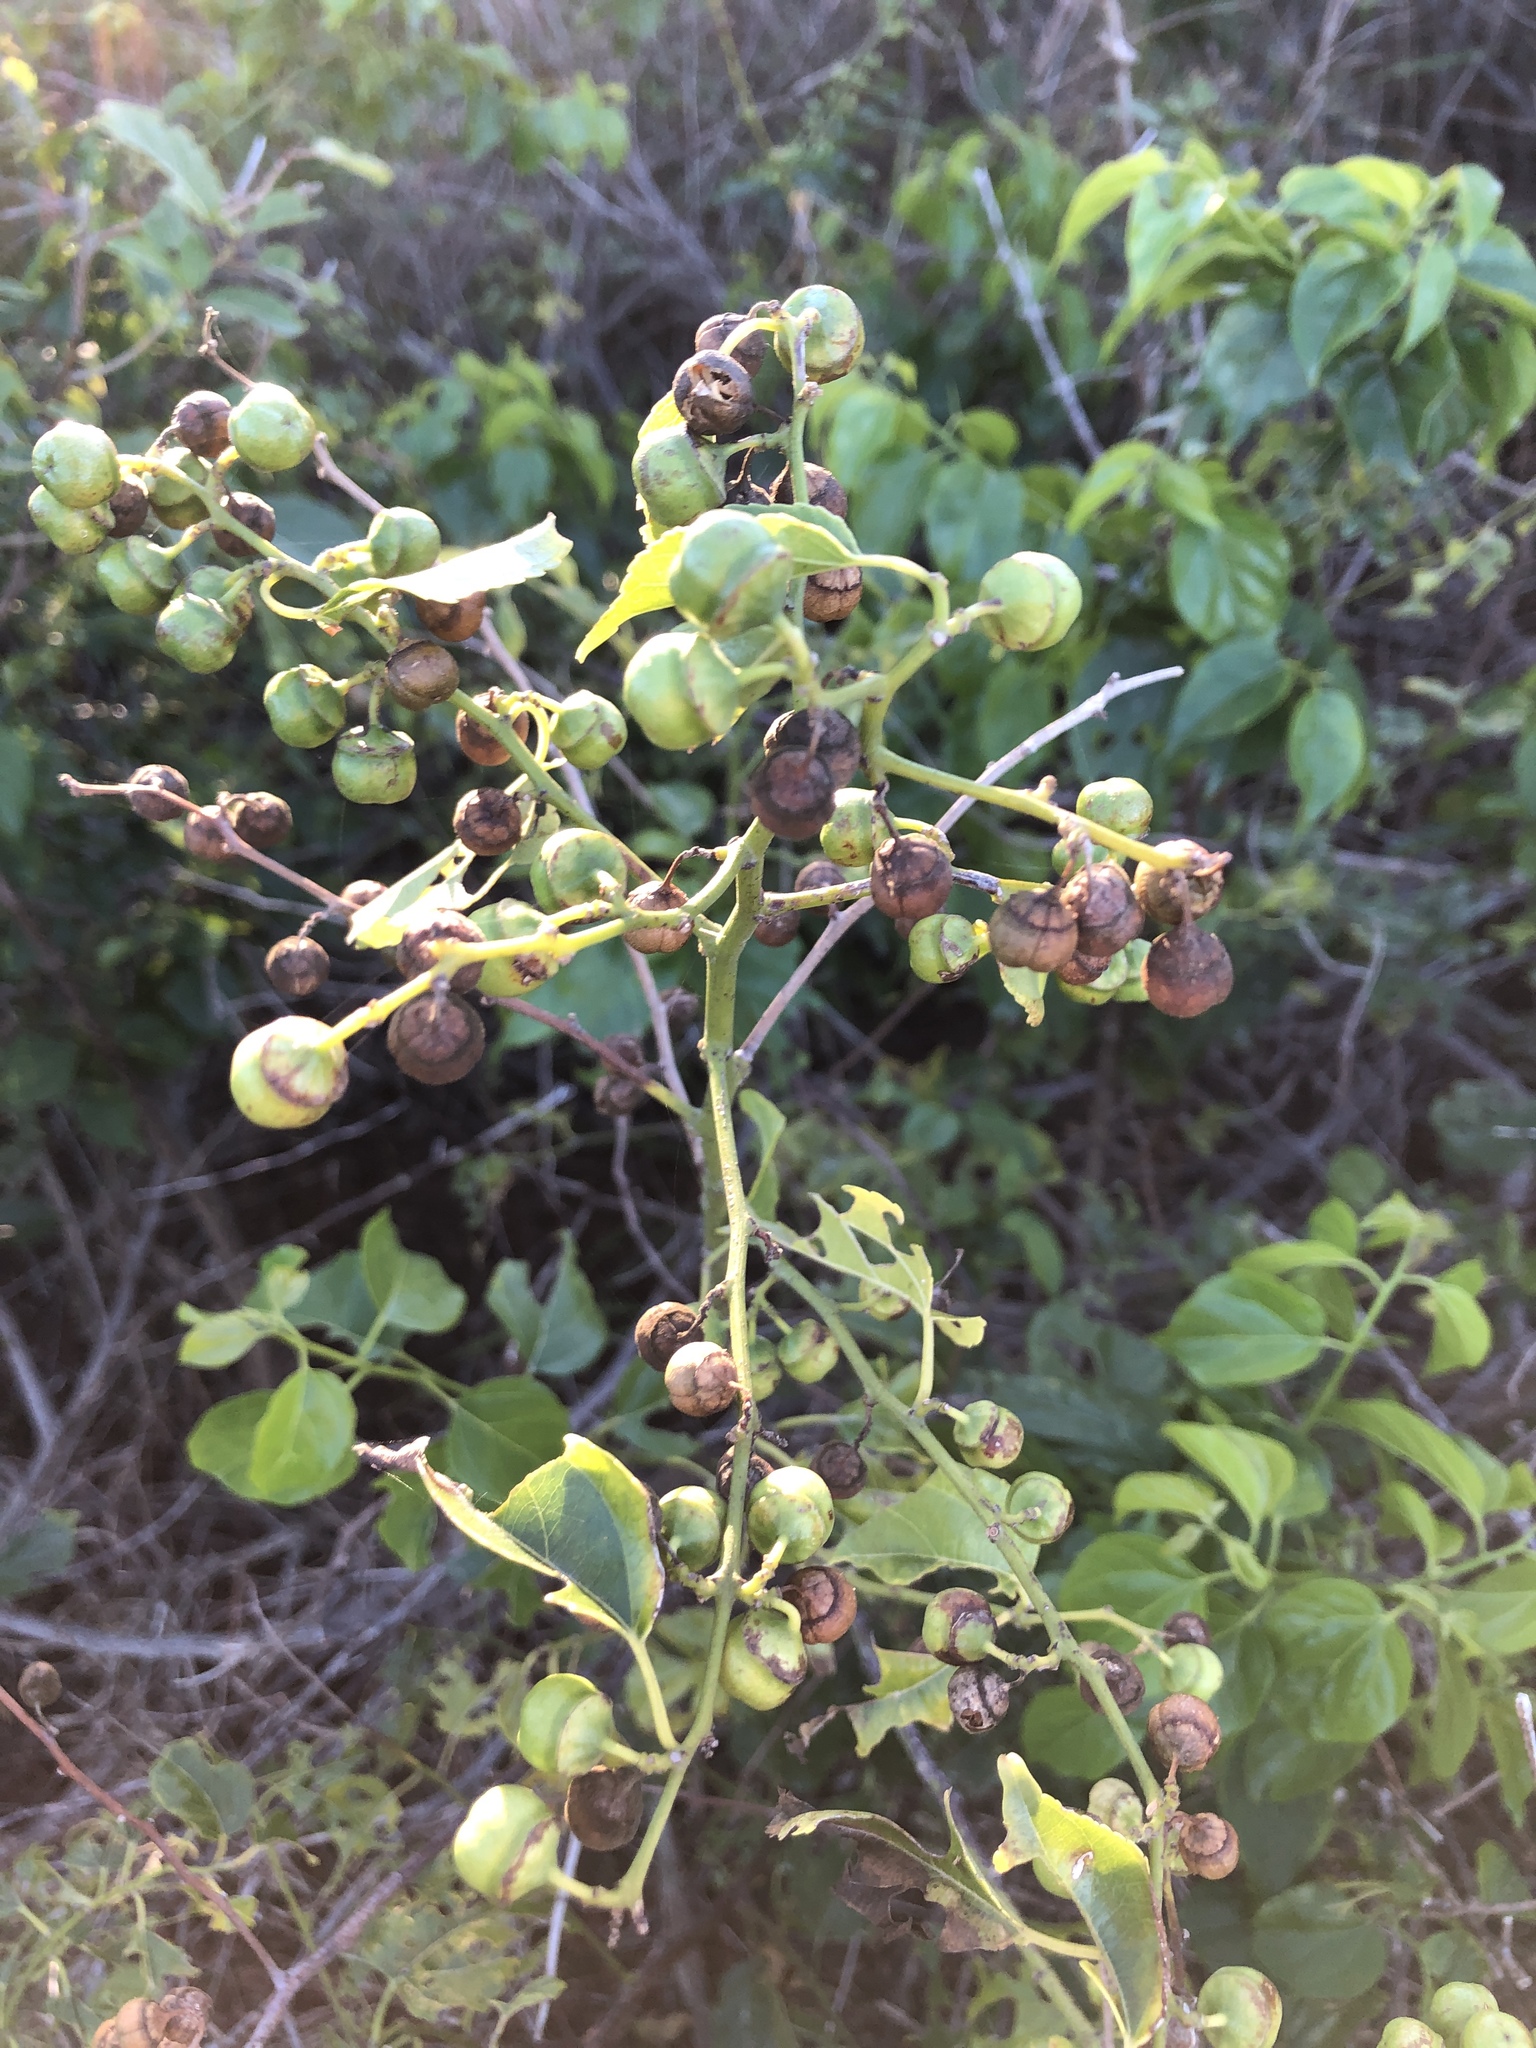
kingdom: Plantae
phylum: Tracheophyta
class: Magnoliopsida
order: Rosales
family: Rhamnaceae
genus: Colubrina
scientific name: Colubrina asiatica
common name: Asian nakedwood
